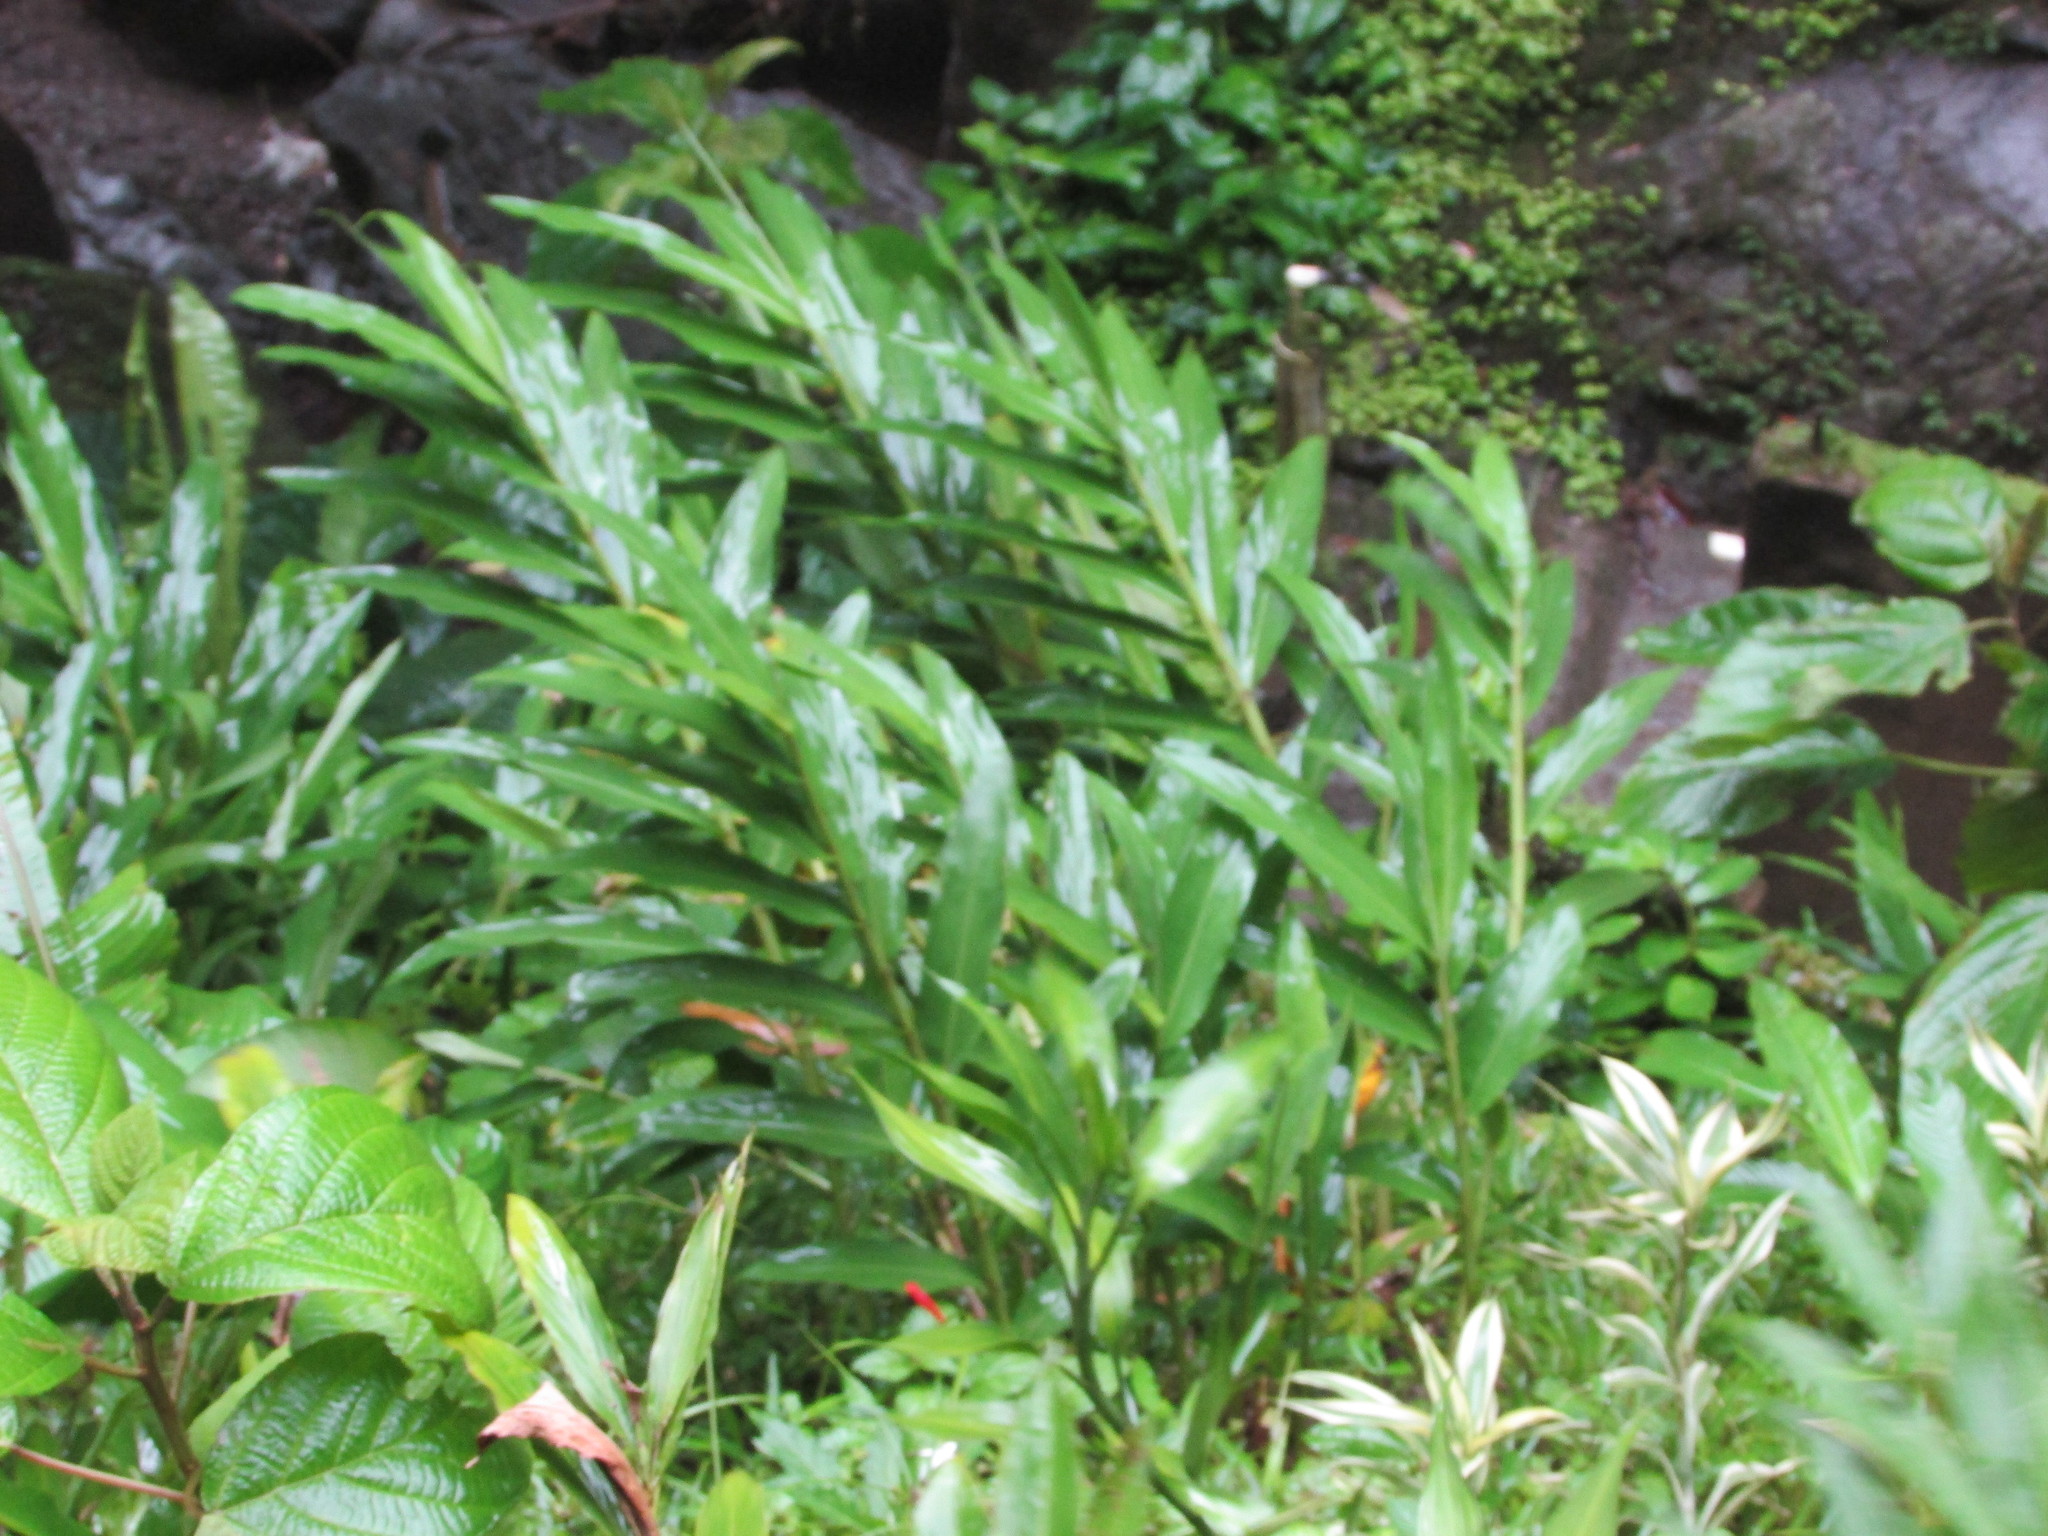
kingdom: Plantae
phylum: Tracheophyta
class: Liliopsida
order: Zingiberales
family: Zingiberaceae
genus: Alpinia
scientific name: Alpinia purpurata
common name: Red ginger
